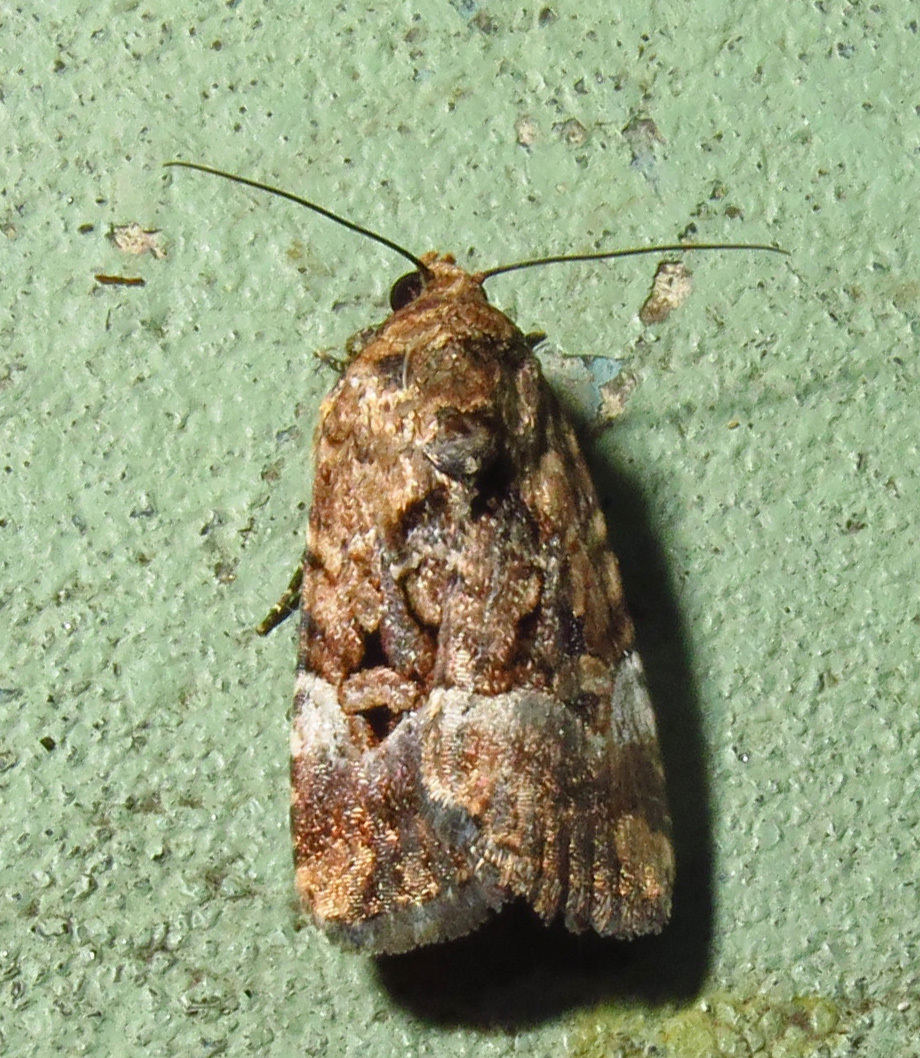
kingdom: Animalia
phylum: Arthropoda
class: Insecta
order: Lepidoptera
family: Noctuidae
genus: Elaphria
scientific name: Elaphria chalcedonia
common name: Chalcedony midget
